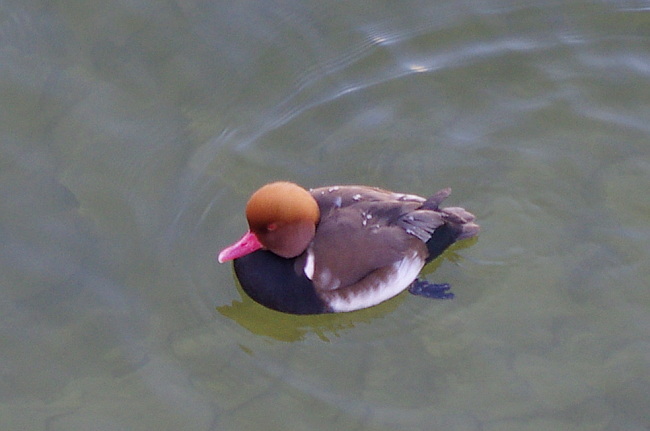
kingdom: Animalia
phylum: Chordata
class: Aves
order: Anseriformes
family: Anatidae
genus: Netta
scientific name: Netta rufina
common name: Red-crested pochard
